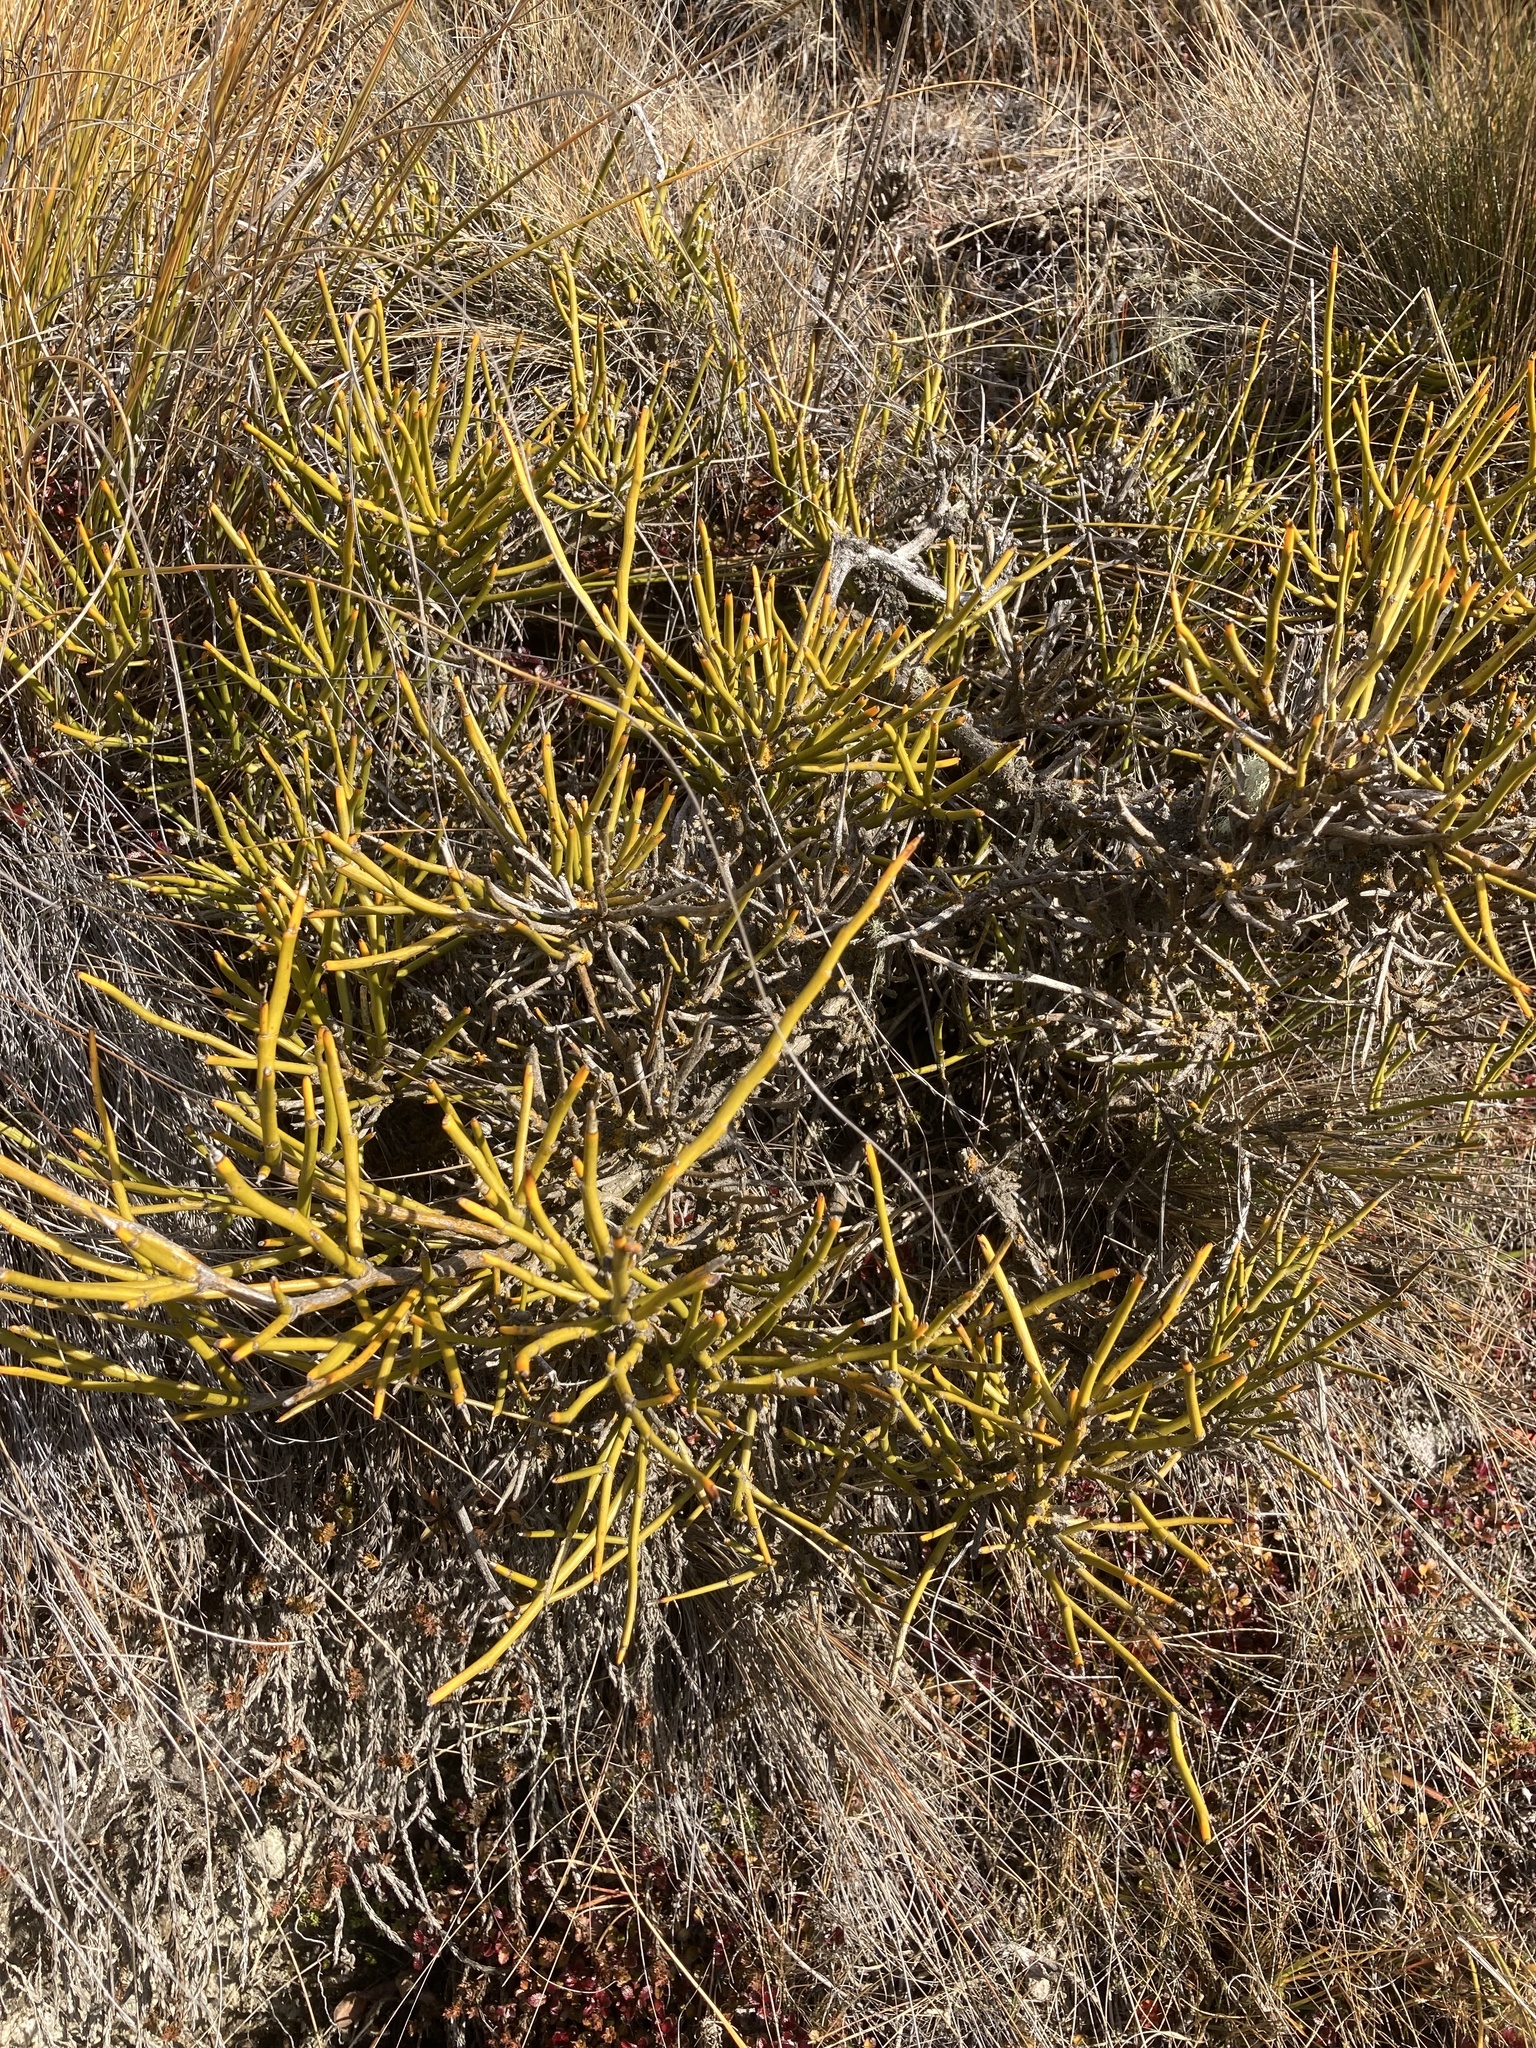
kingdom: Plantae
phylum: Tracheophyta
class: Magnoliopsida
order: Fabales
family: Fabaceae
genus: Carmichaelia
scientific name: Carmichaelia petriei
